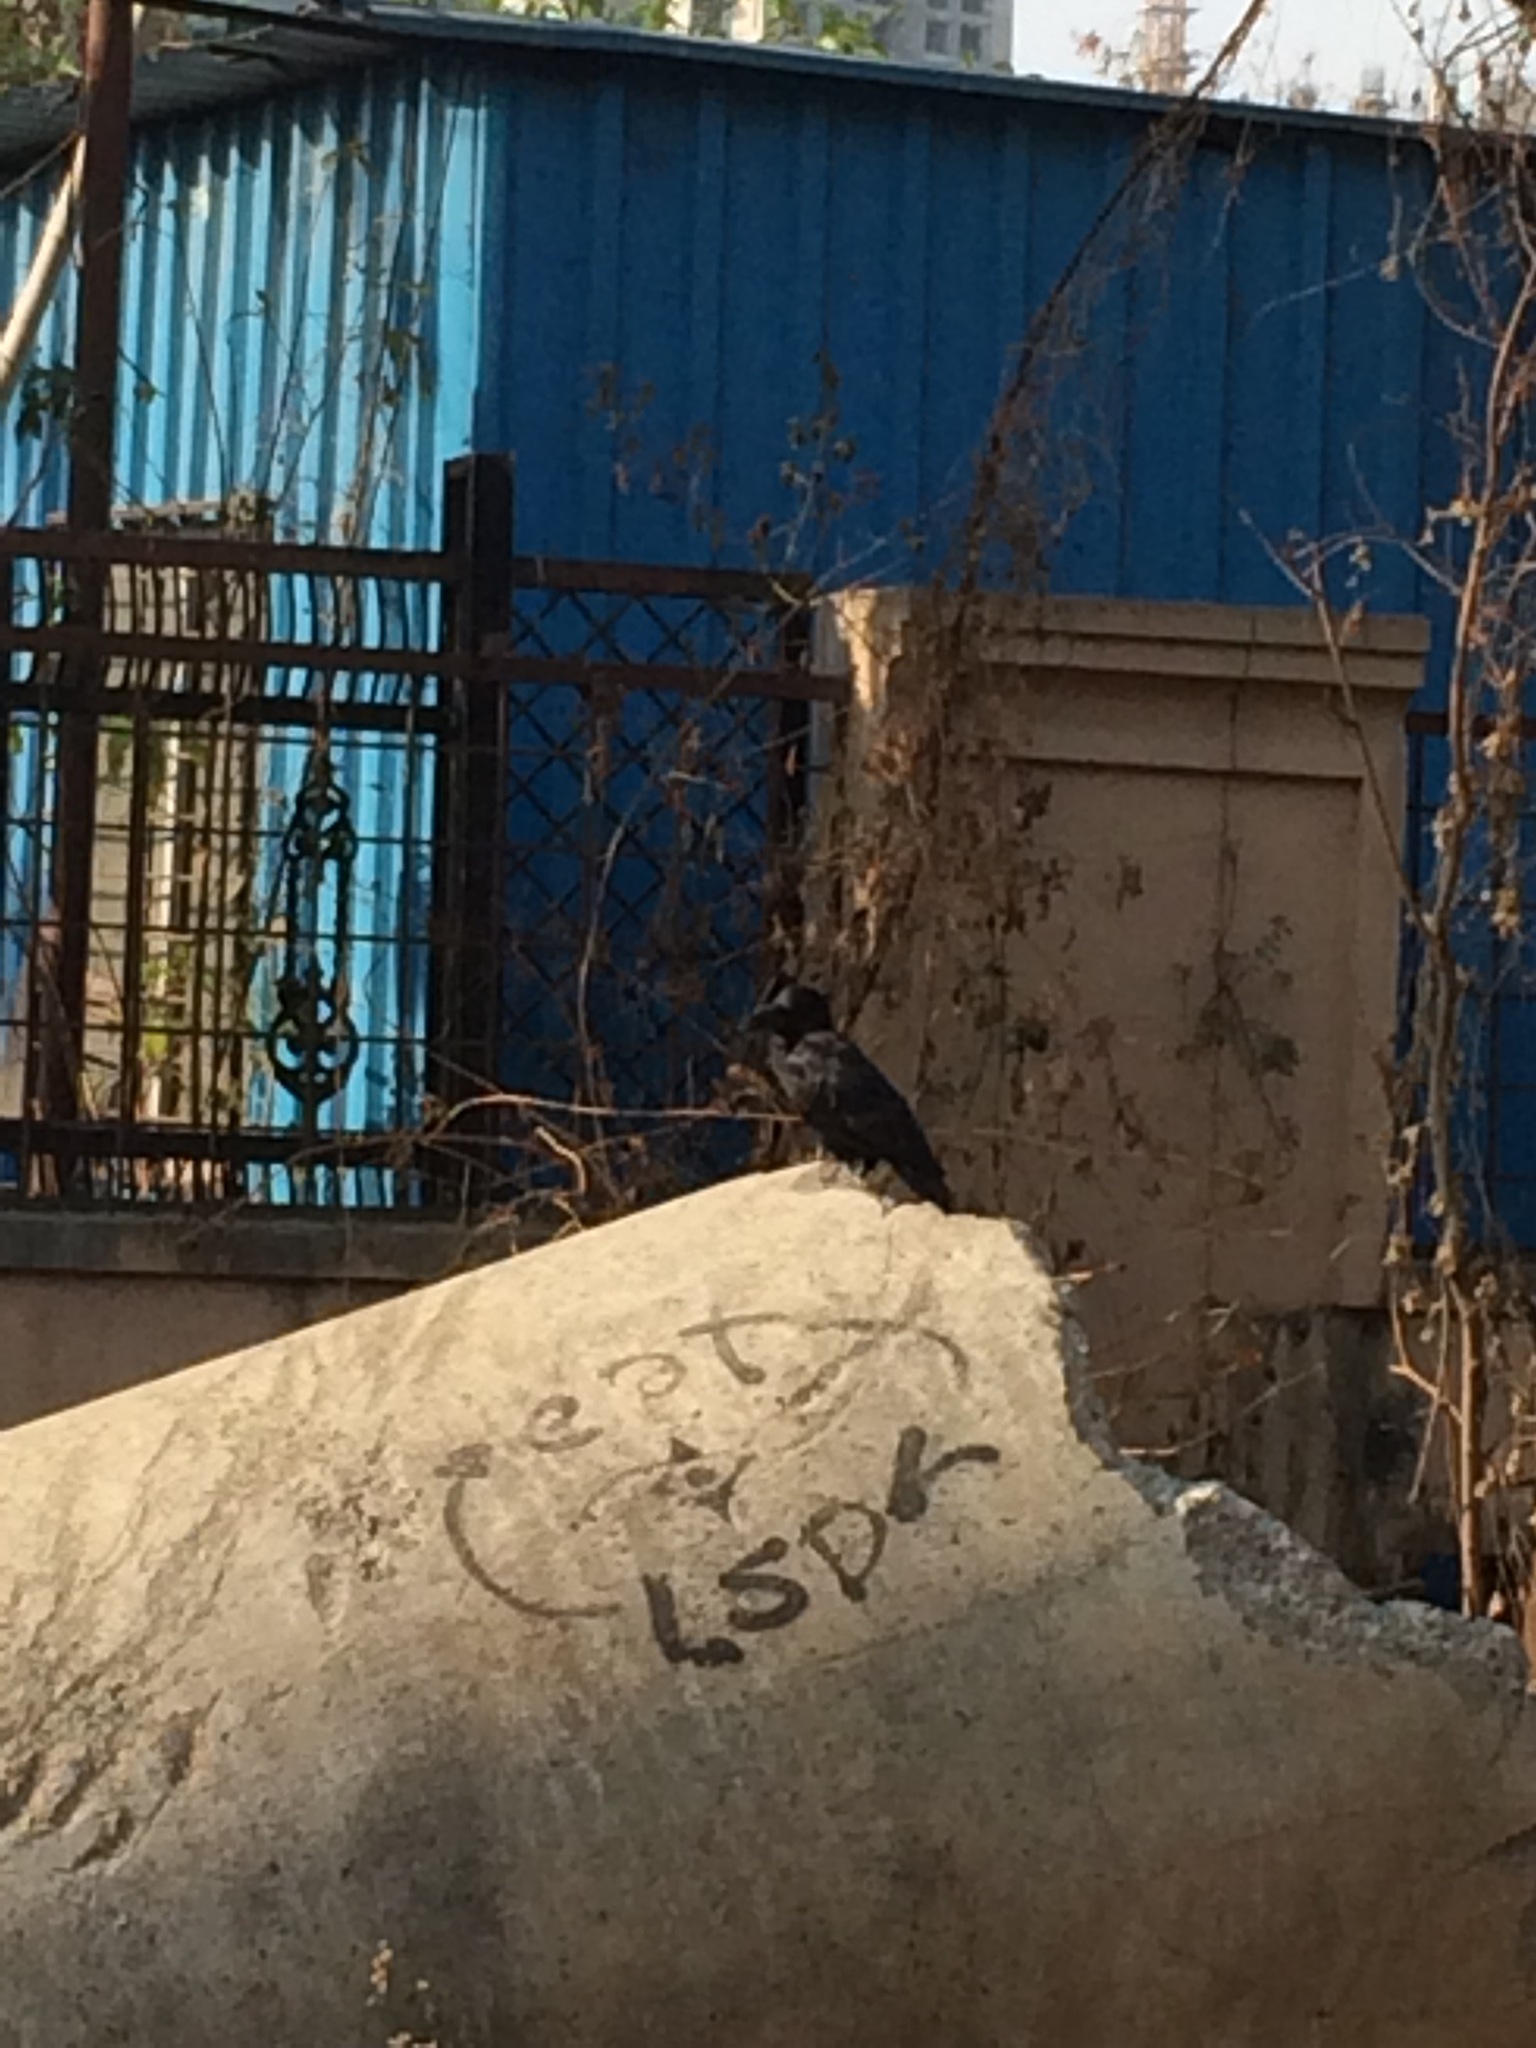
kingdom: Animalia
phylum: Chordata
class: Aves
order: Passeriformes
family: Corvidae
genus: Corvus
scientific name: Corvus macrorhynchos
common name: Large-billed crow
